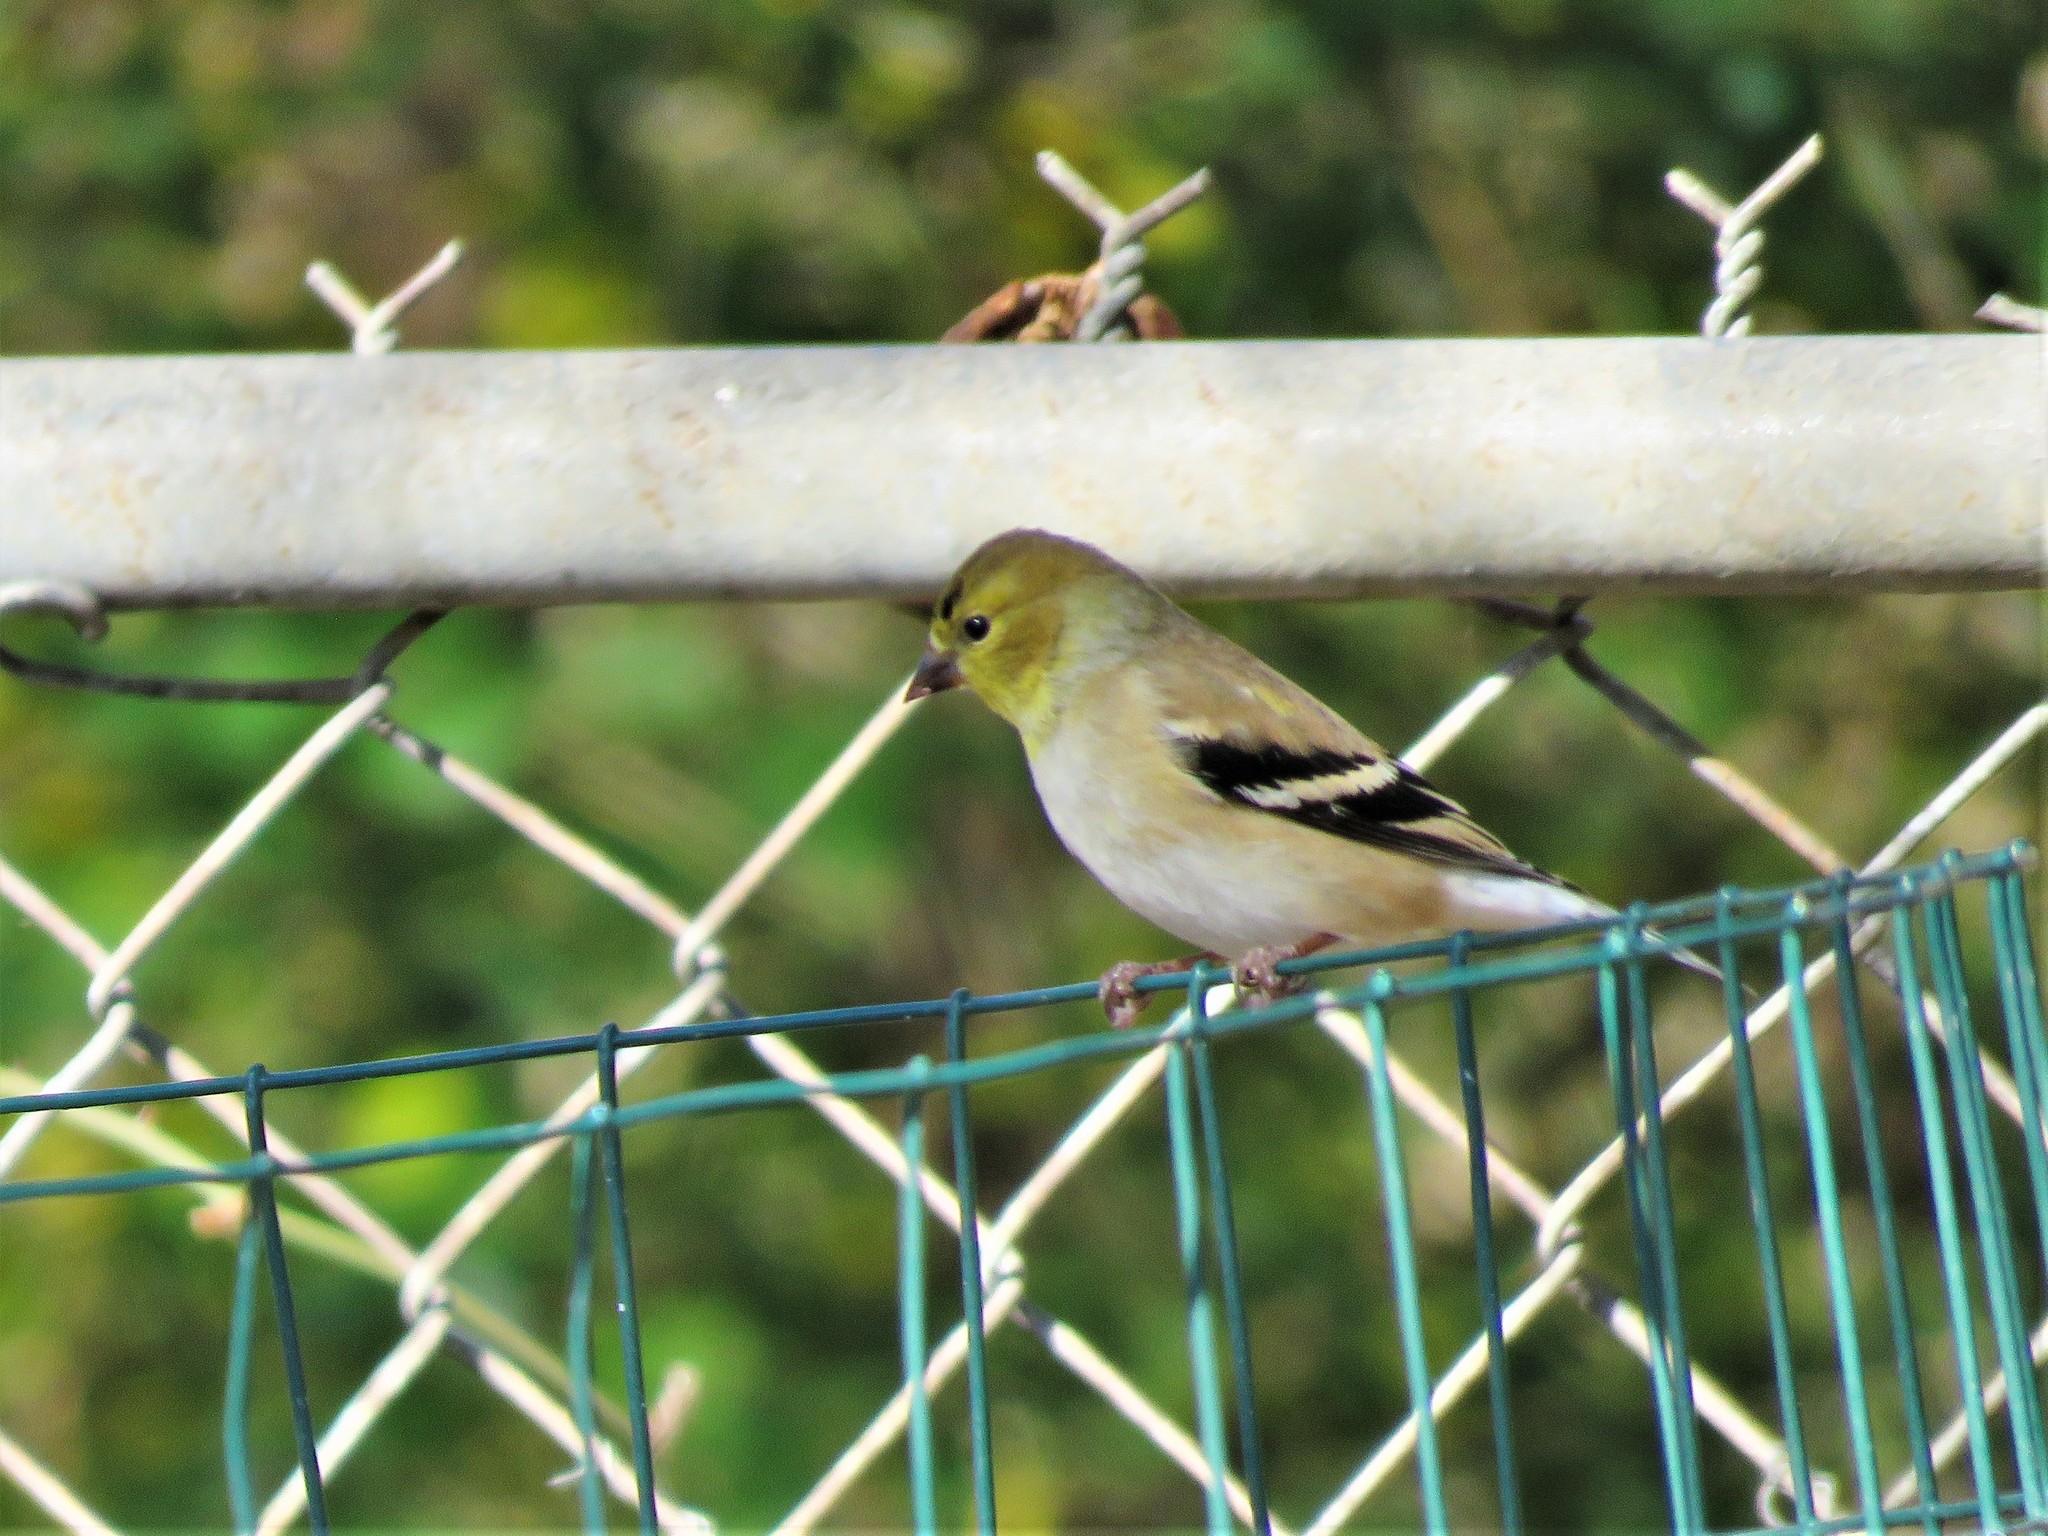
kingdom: Animalia
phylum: Chordata
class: Aves
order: Passeriformes
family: Fringillidae
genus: Spinus
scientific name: Spinus tristis
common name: American goldfinch
